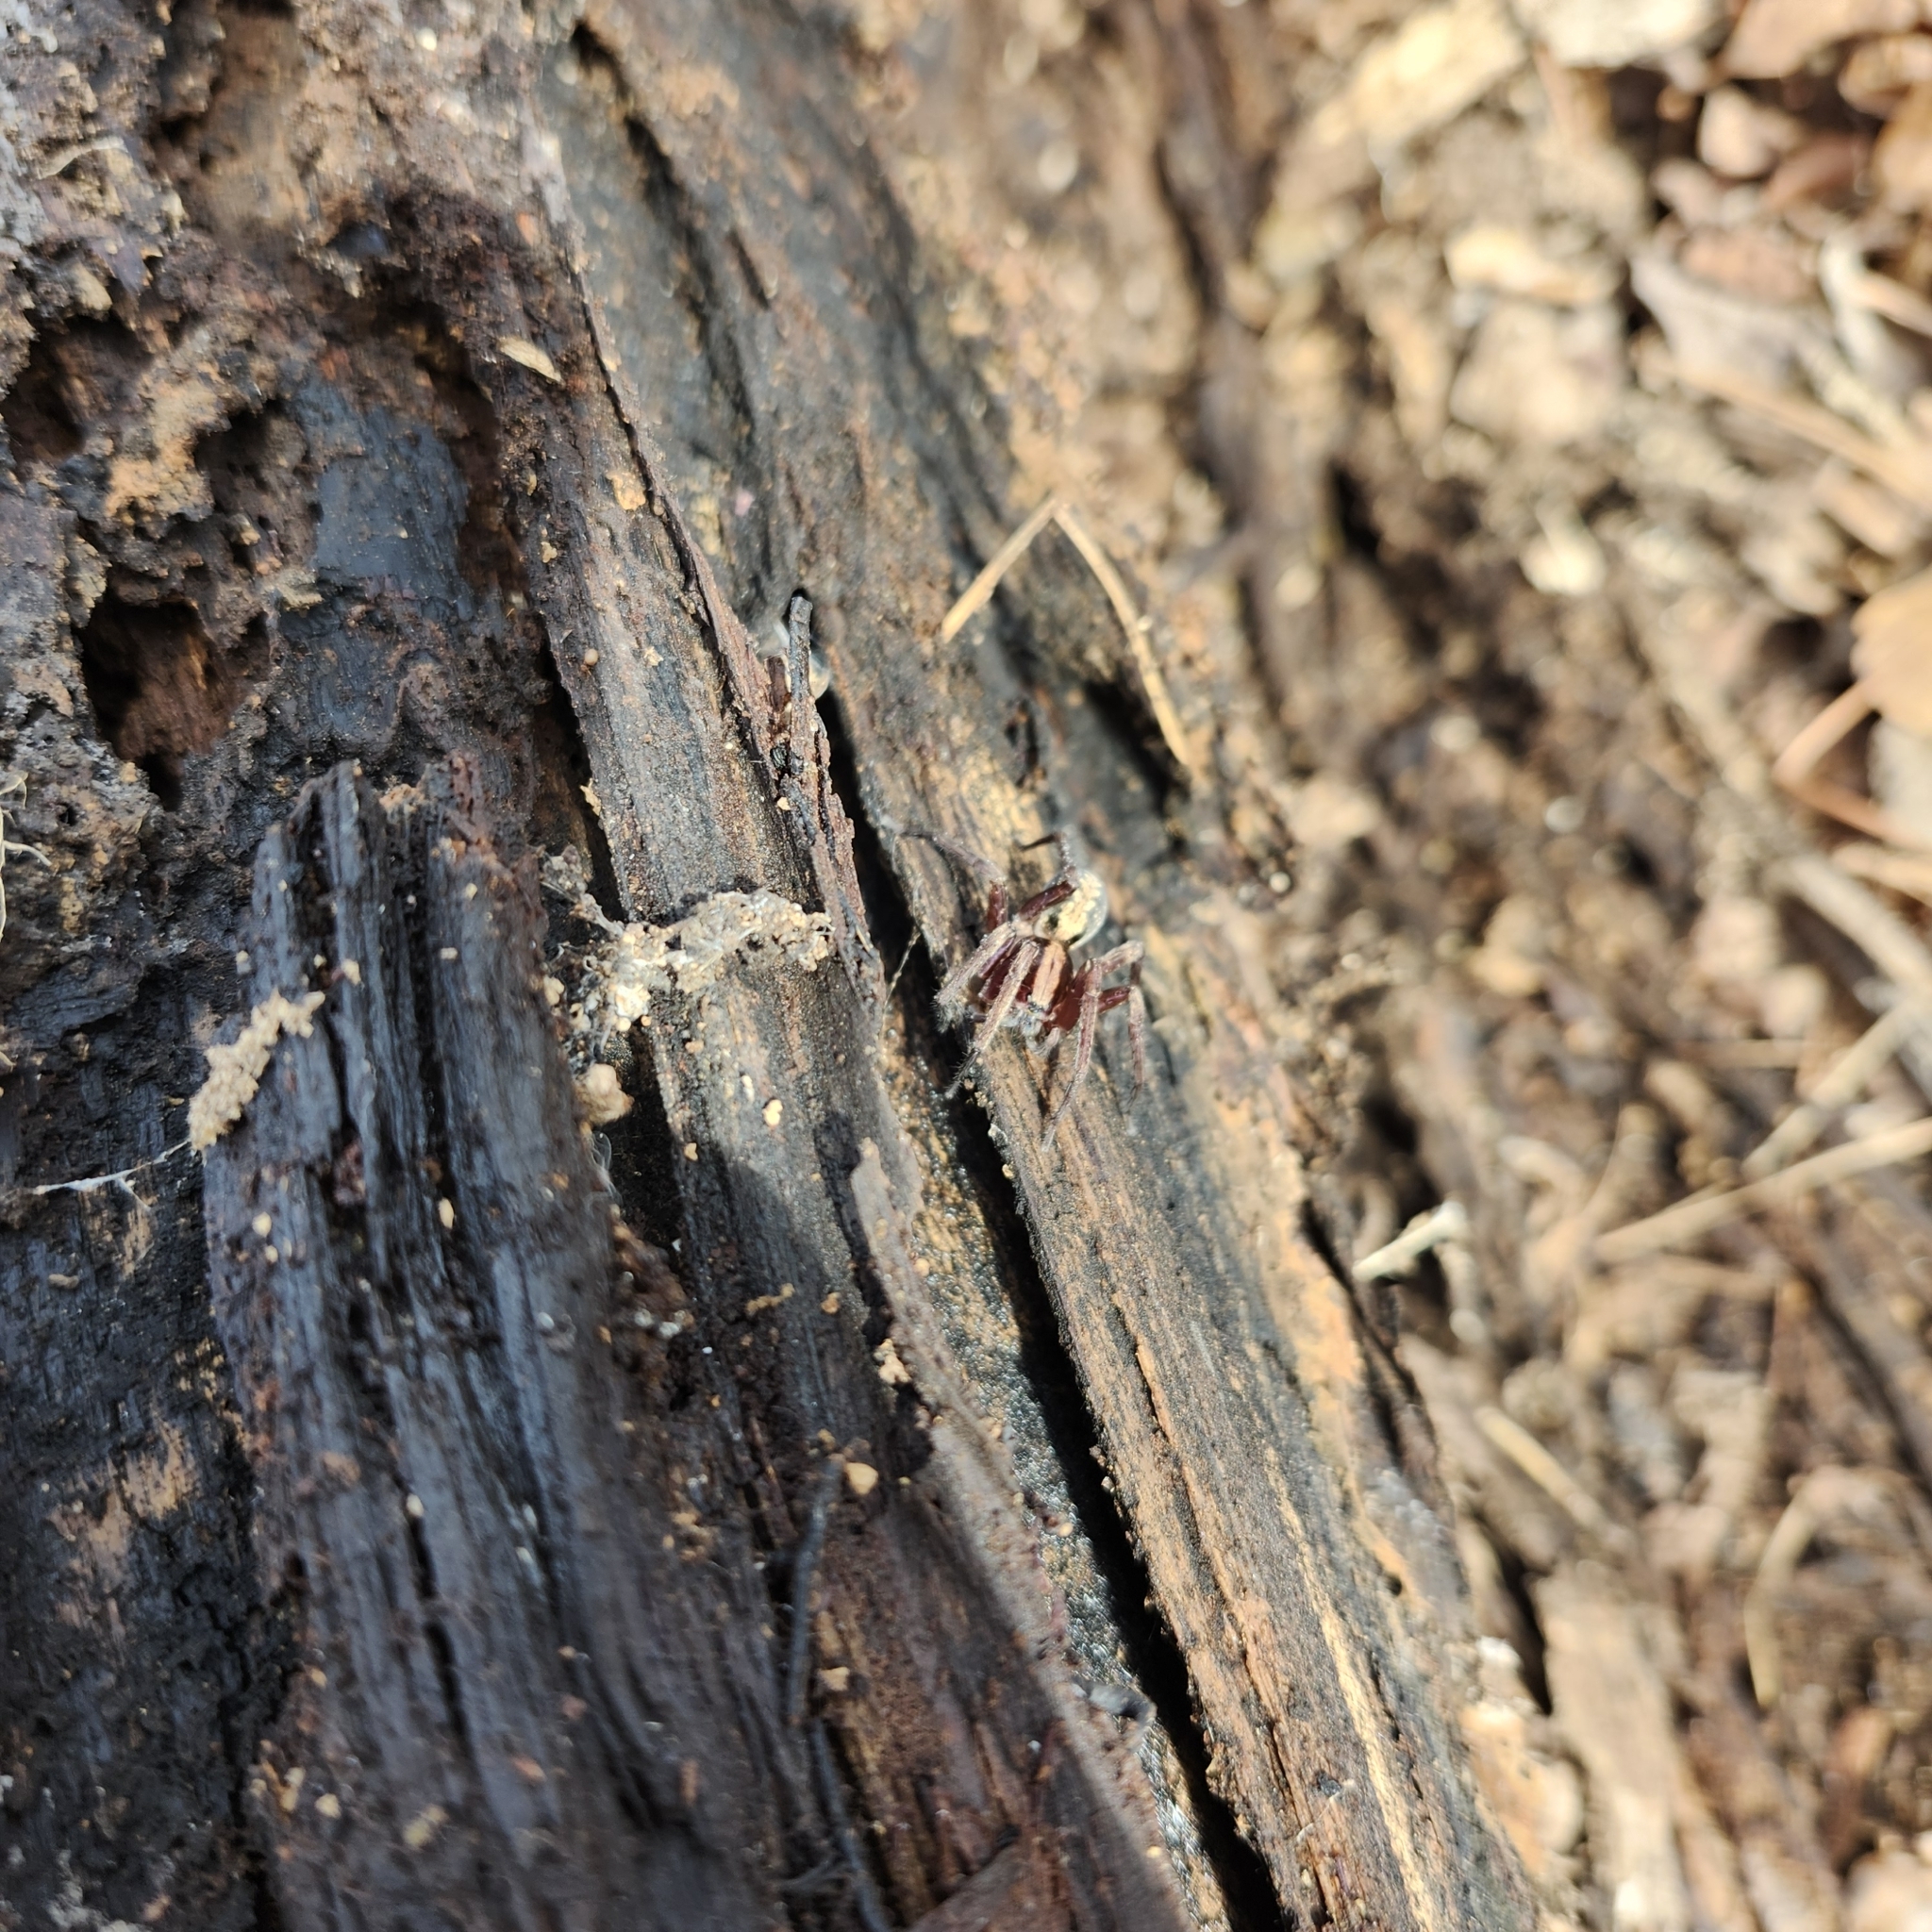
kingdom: Animalia
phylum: Arthropoda
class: Arachnida
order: Araneae
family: Ctenidae
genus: Ctenus
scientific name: Ctenus hibernalis
